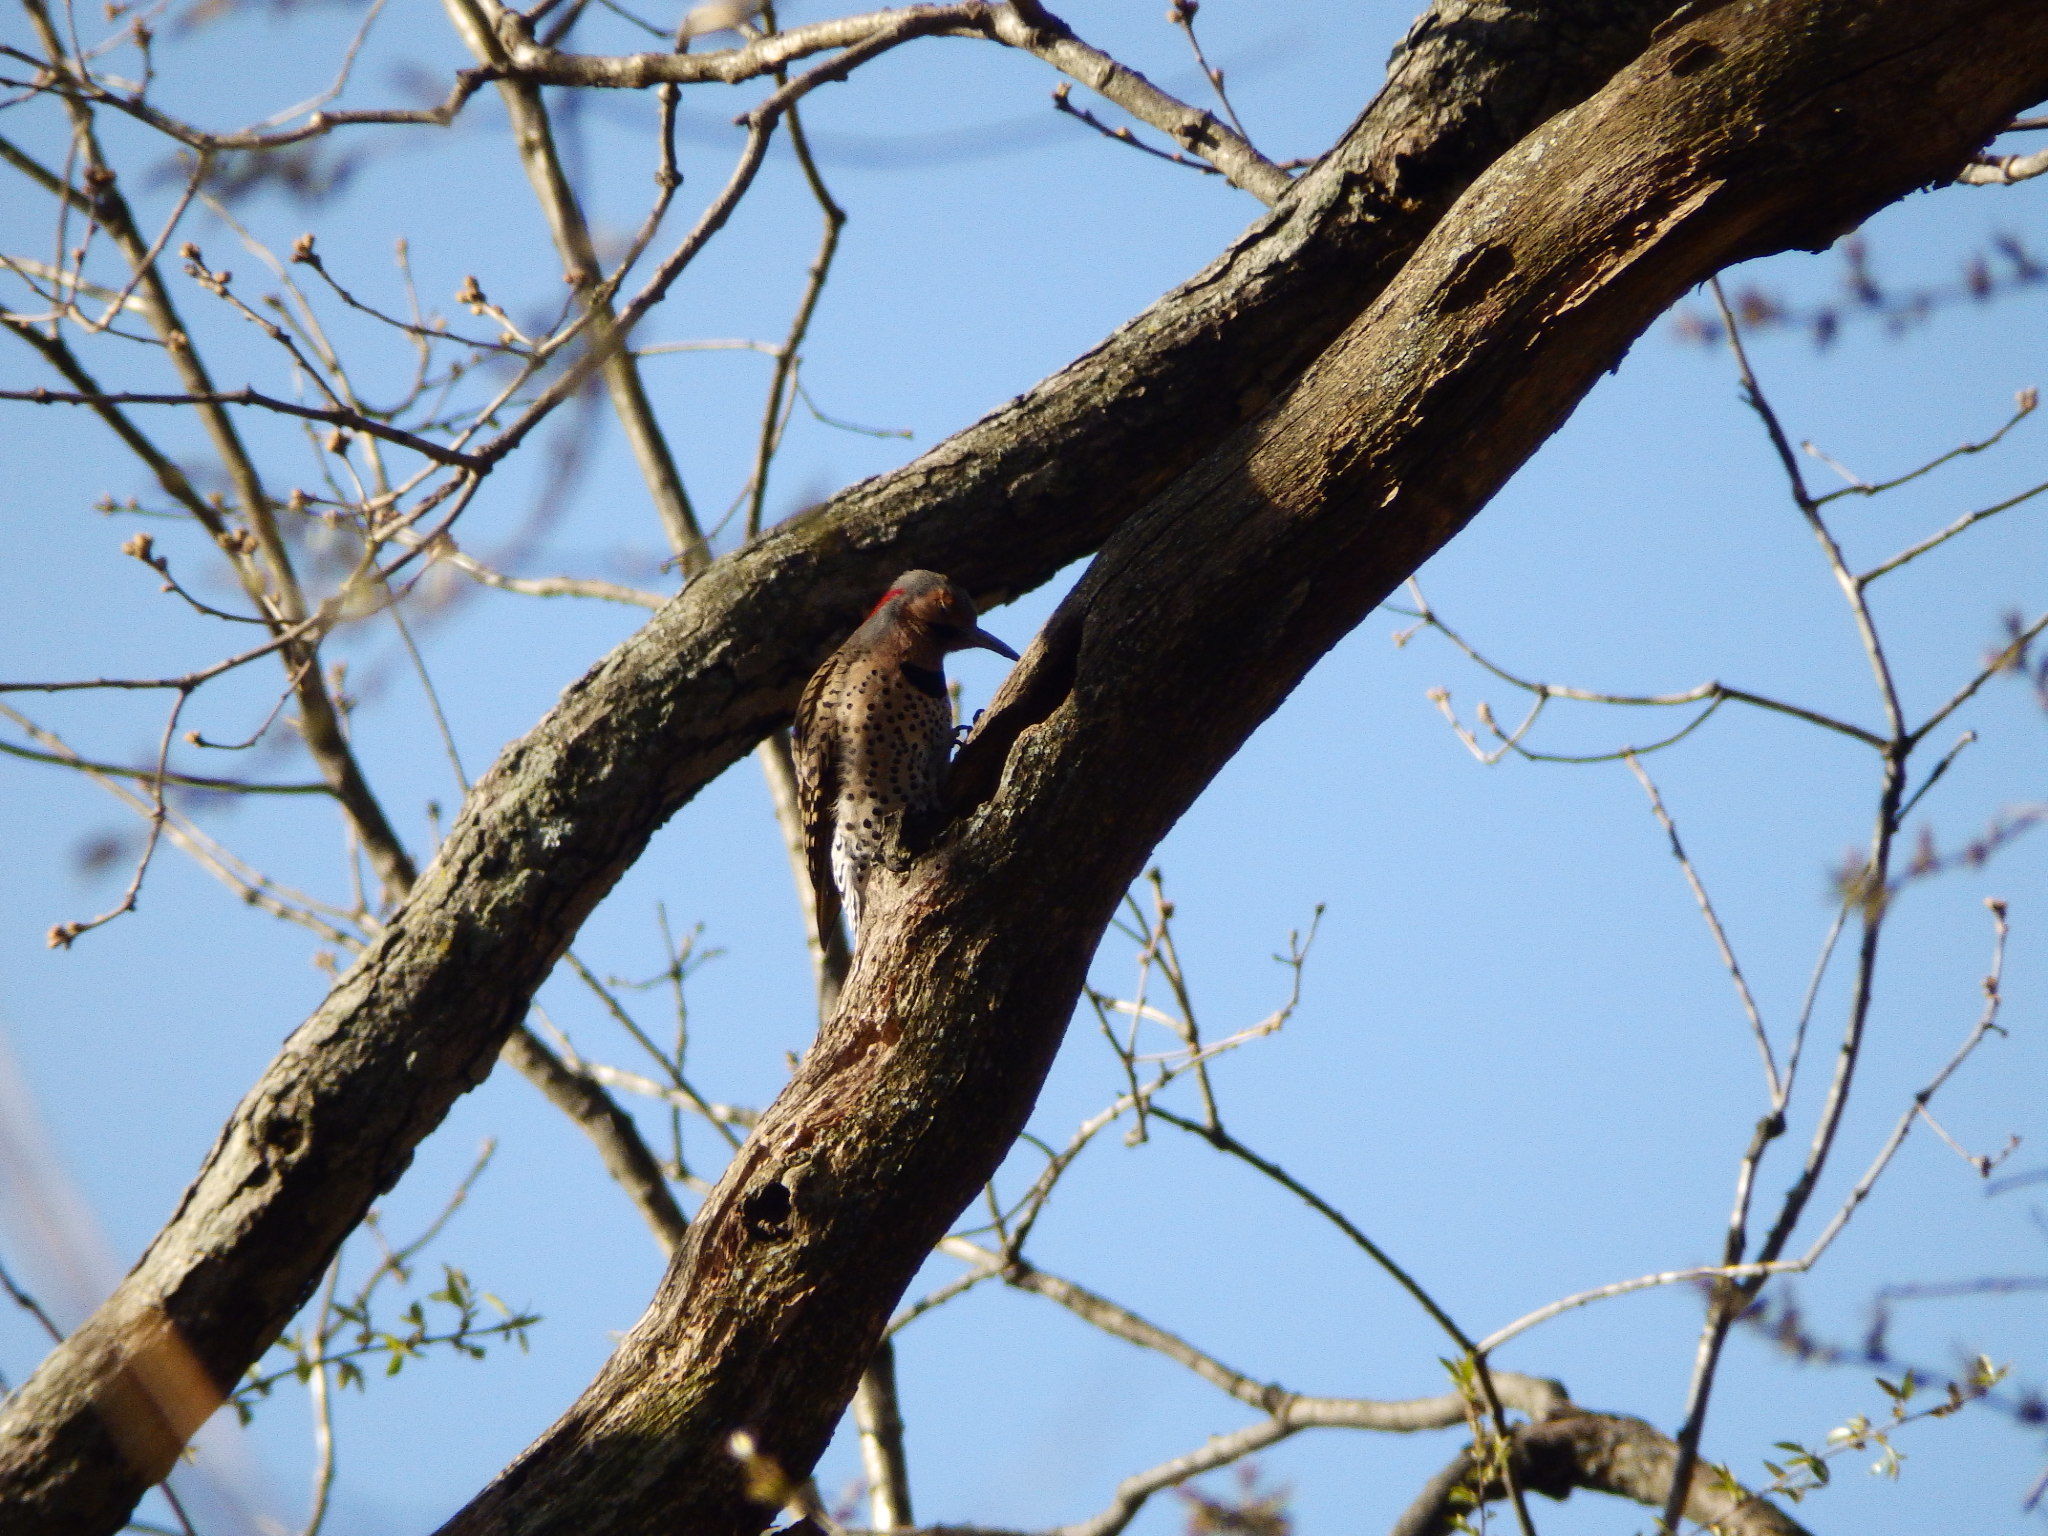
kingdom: Animalia
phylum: Chordata
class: Aves
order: Piciformes
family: Picidae
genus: Colaptes
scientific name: Colaptes auratus
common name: Northern flicker
